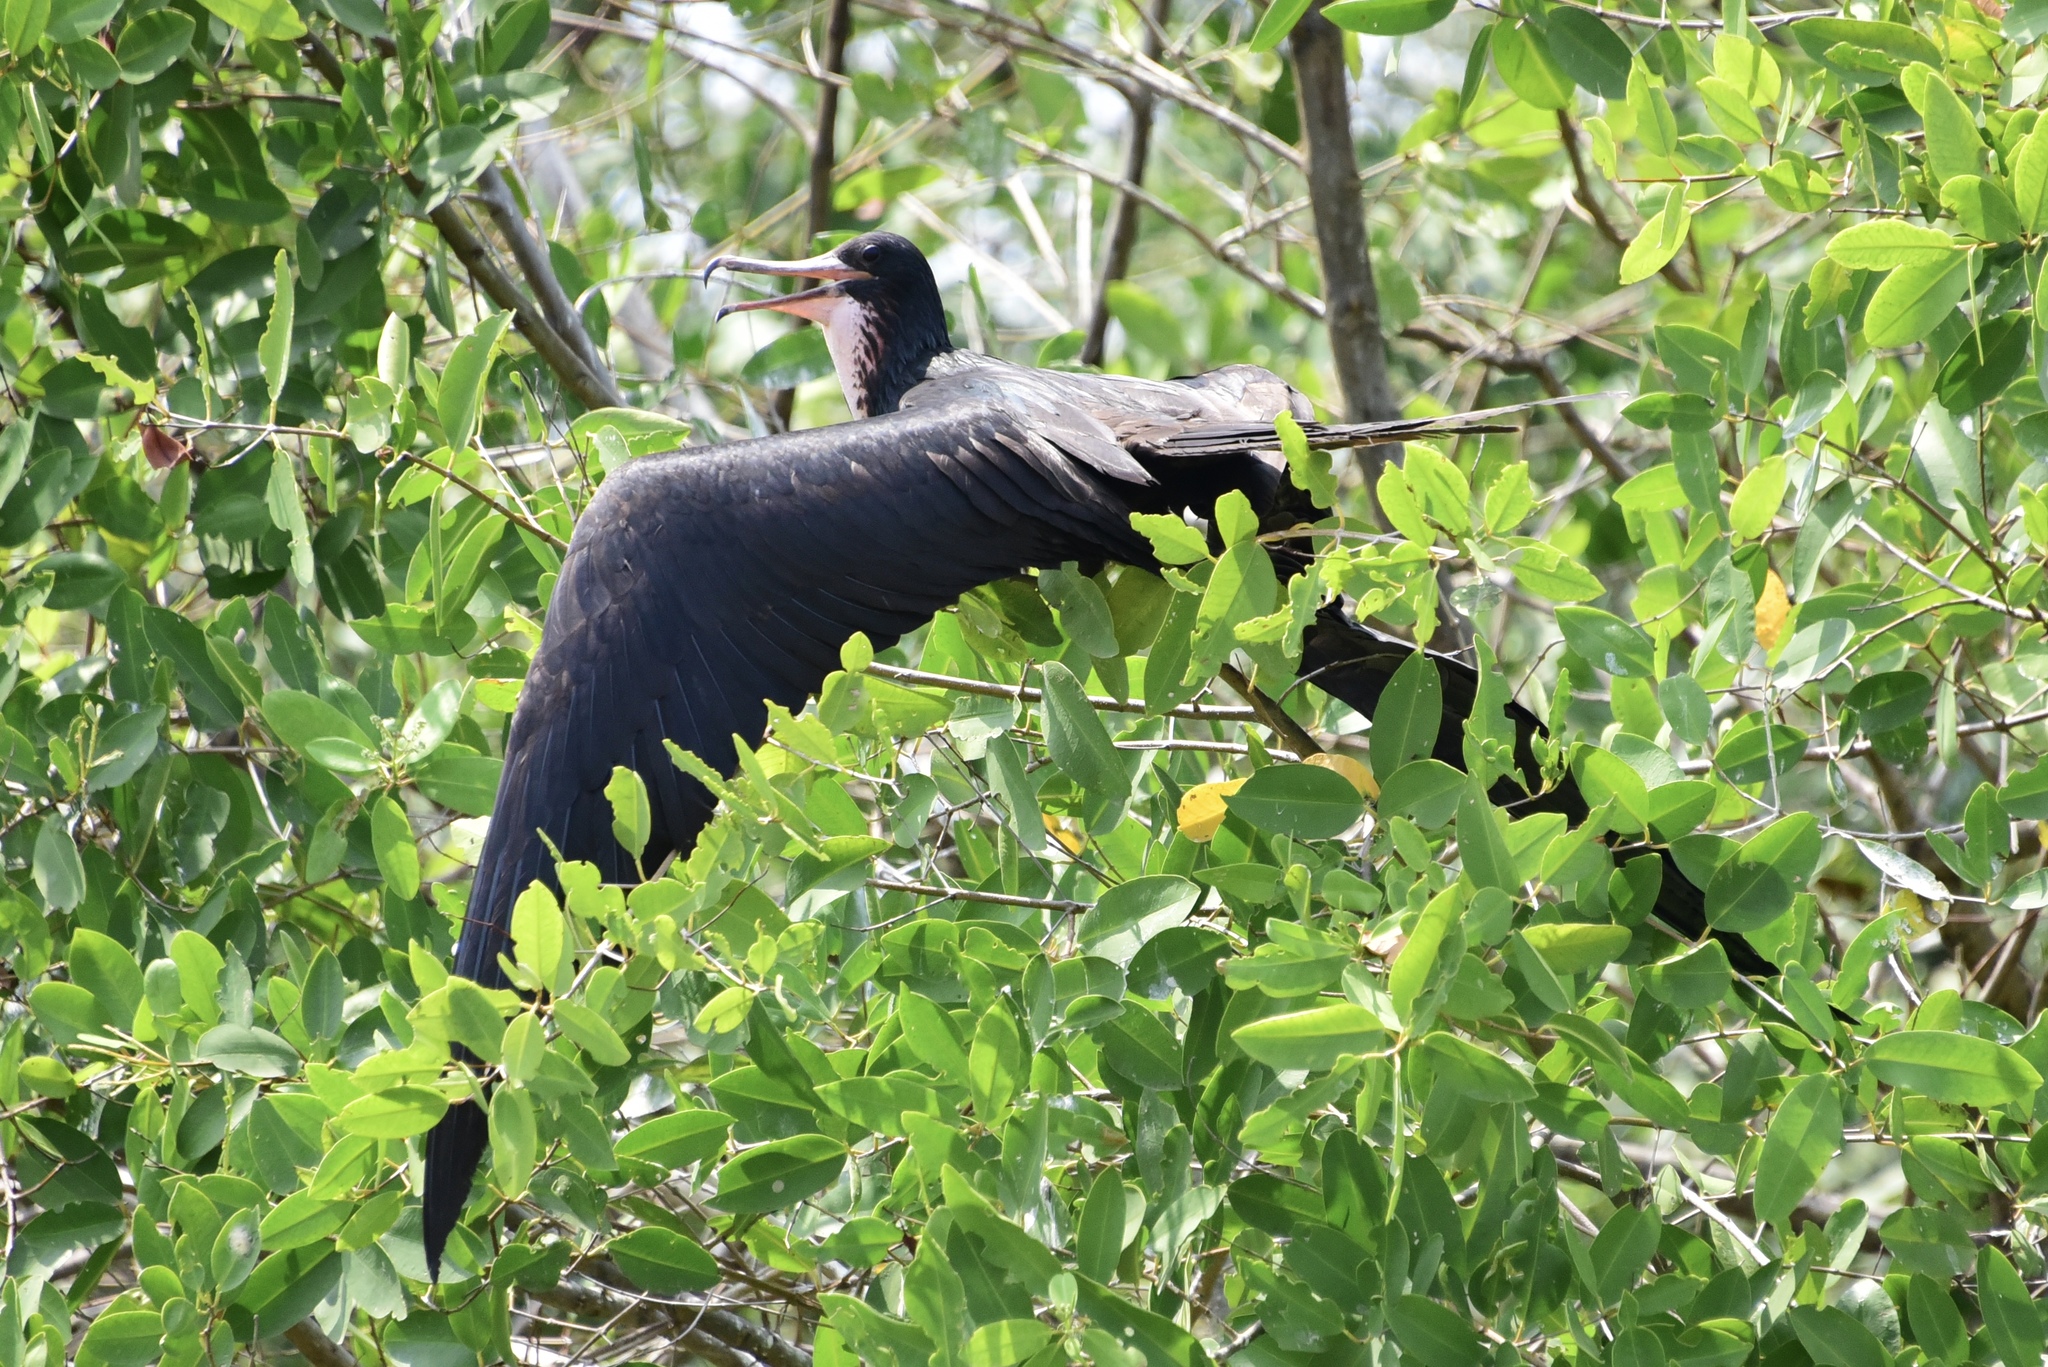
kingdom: Animalia
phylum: Chordata
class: Aves
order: Suliformes
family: Fregatidae
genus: Fregata
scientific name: Fregata magnificens
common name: Magnificent frigatebird
